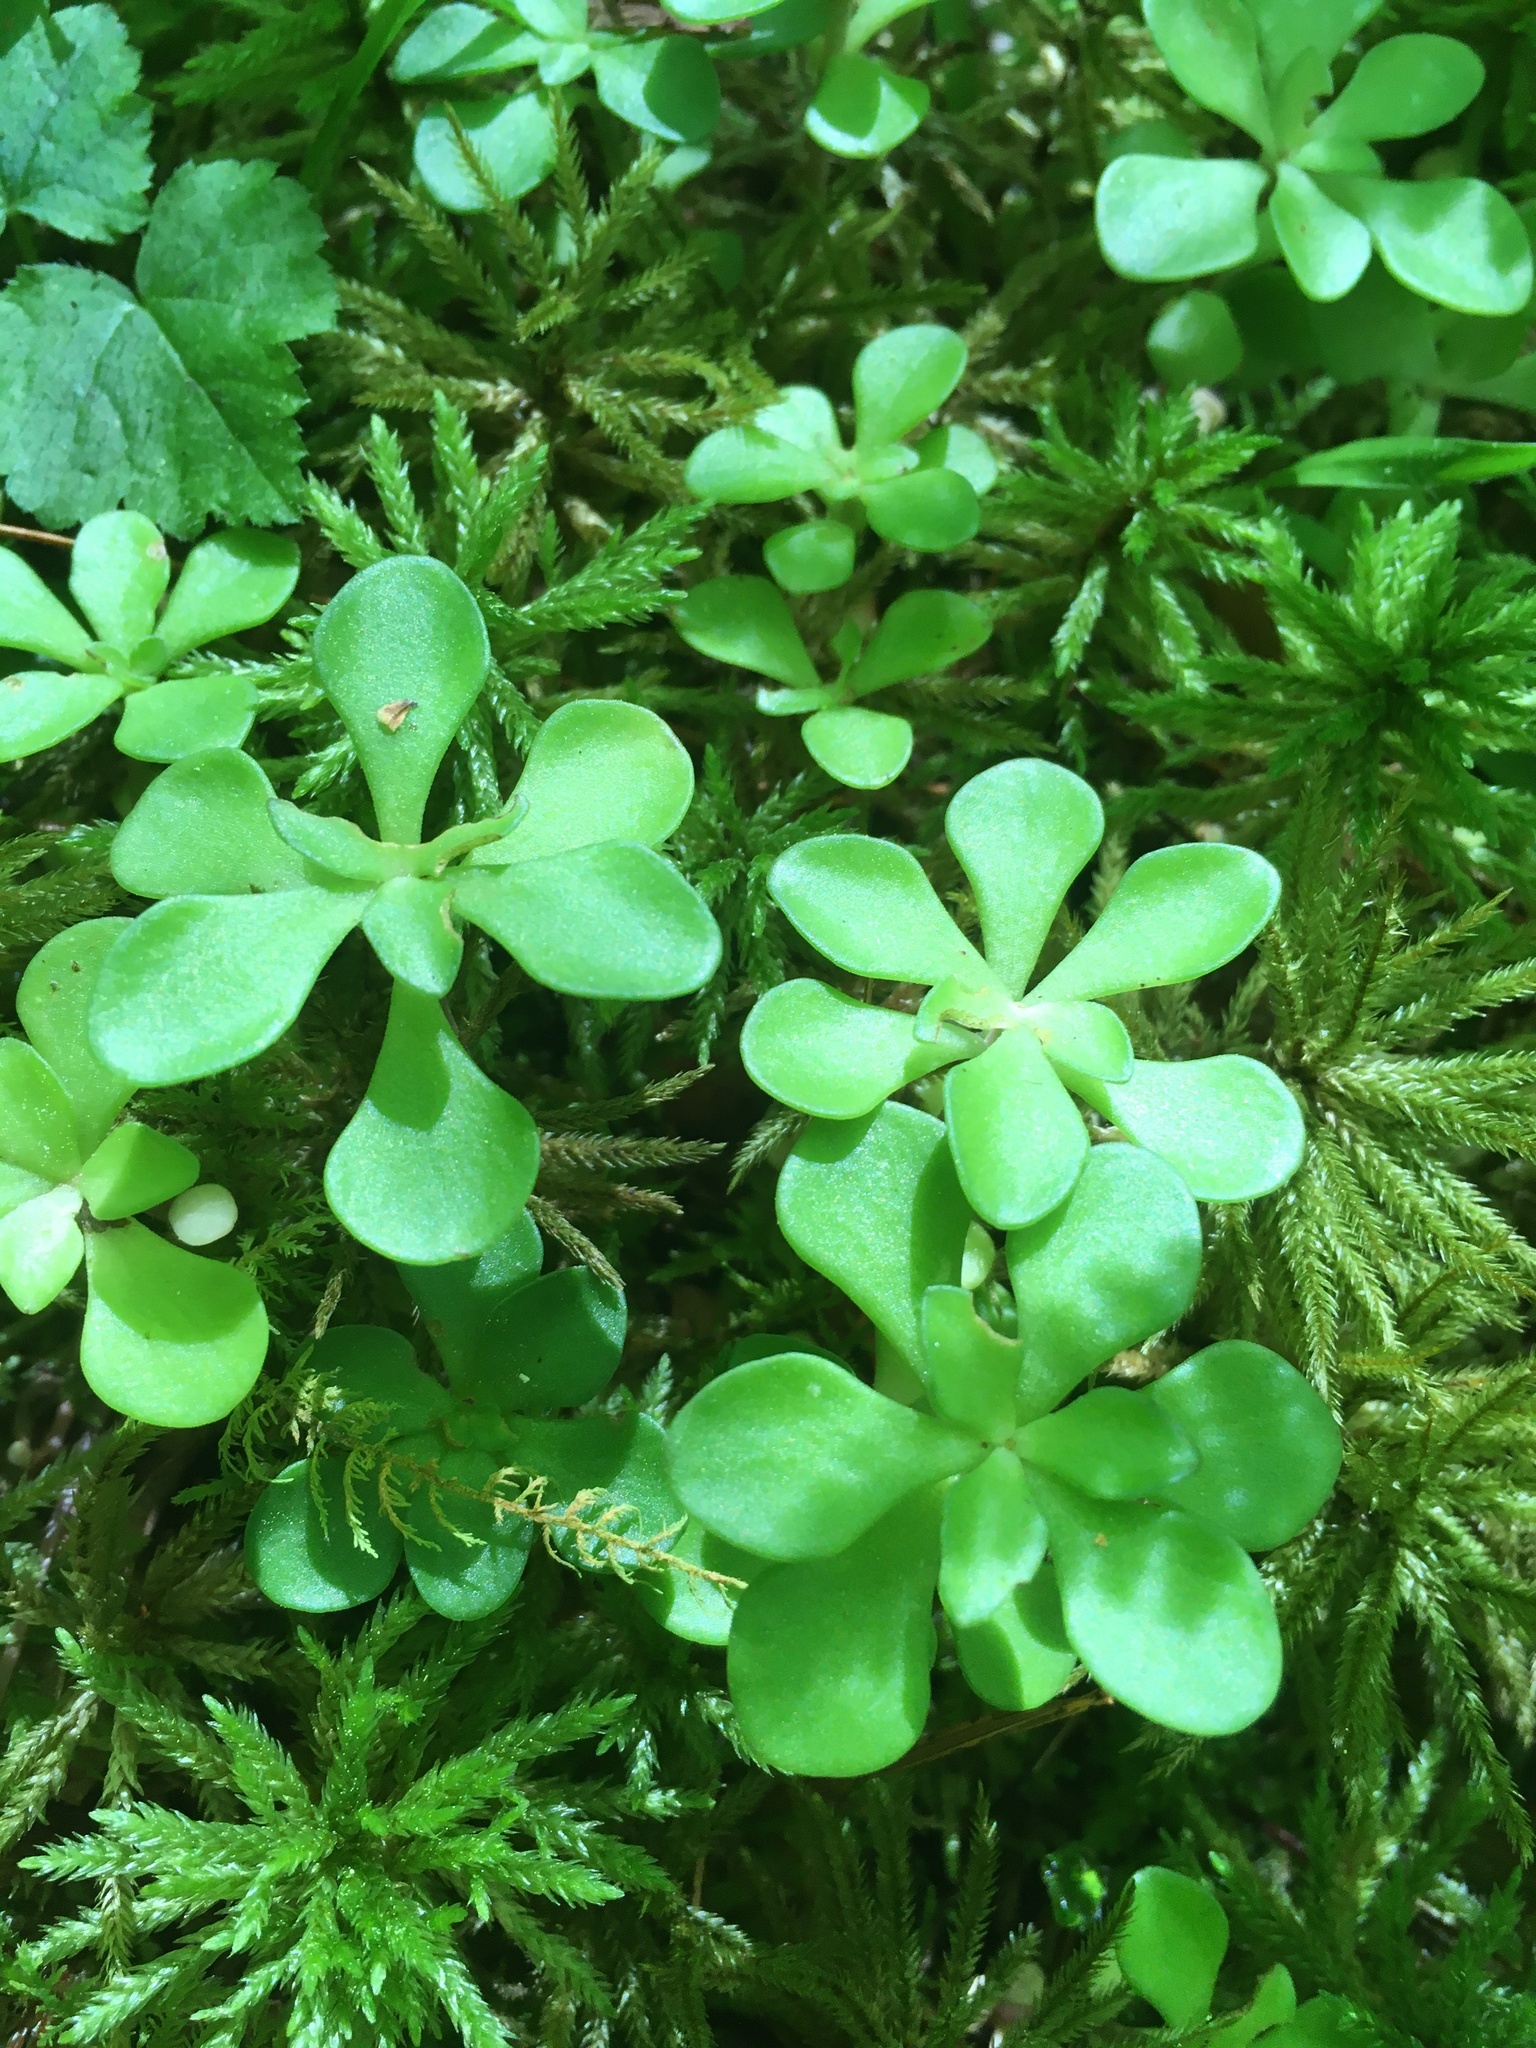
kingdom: Plantae
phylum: Tracheophyta
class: Magnoliopsida
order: Saxifragales
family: Crassulaceae
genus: Sedum
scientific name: Sedum ternatum
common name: Wild stonecrop
